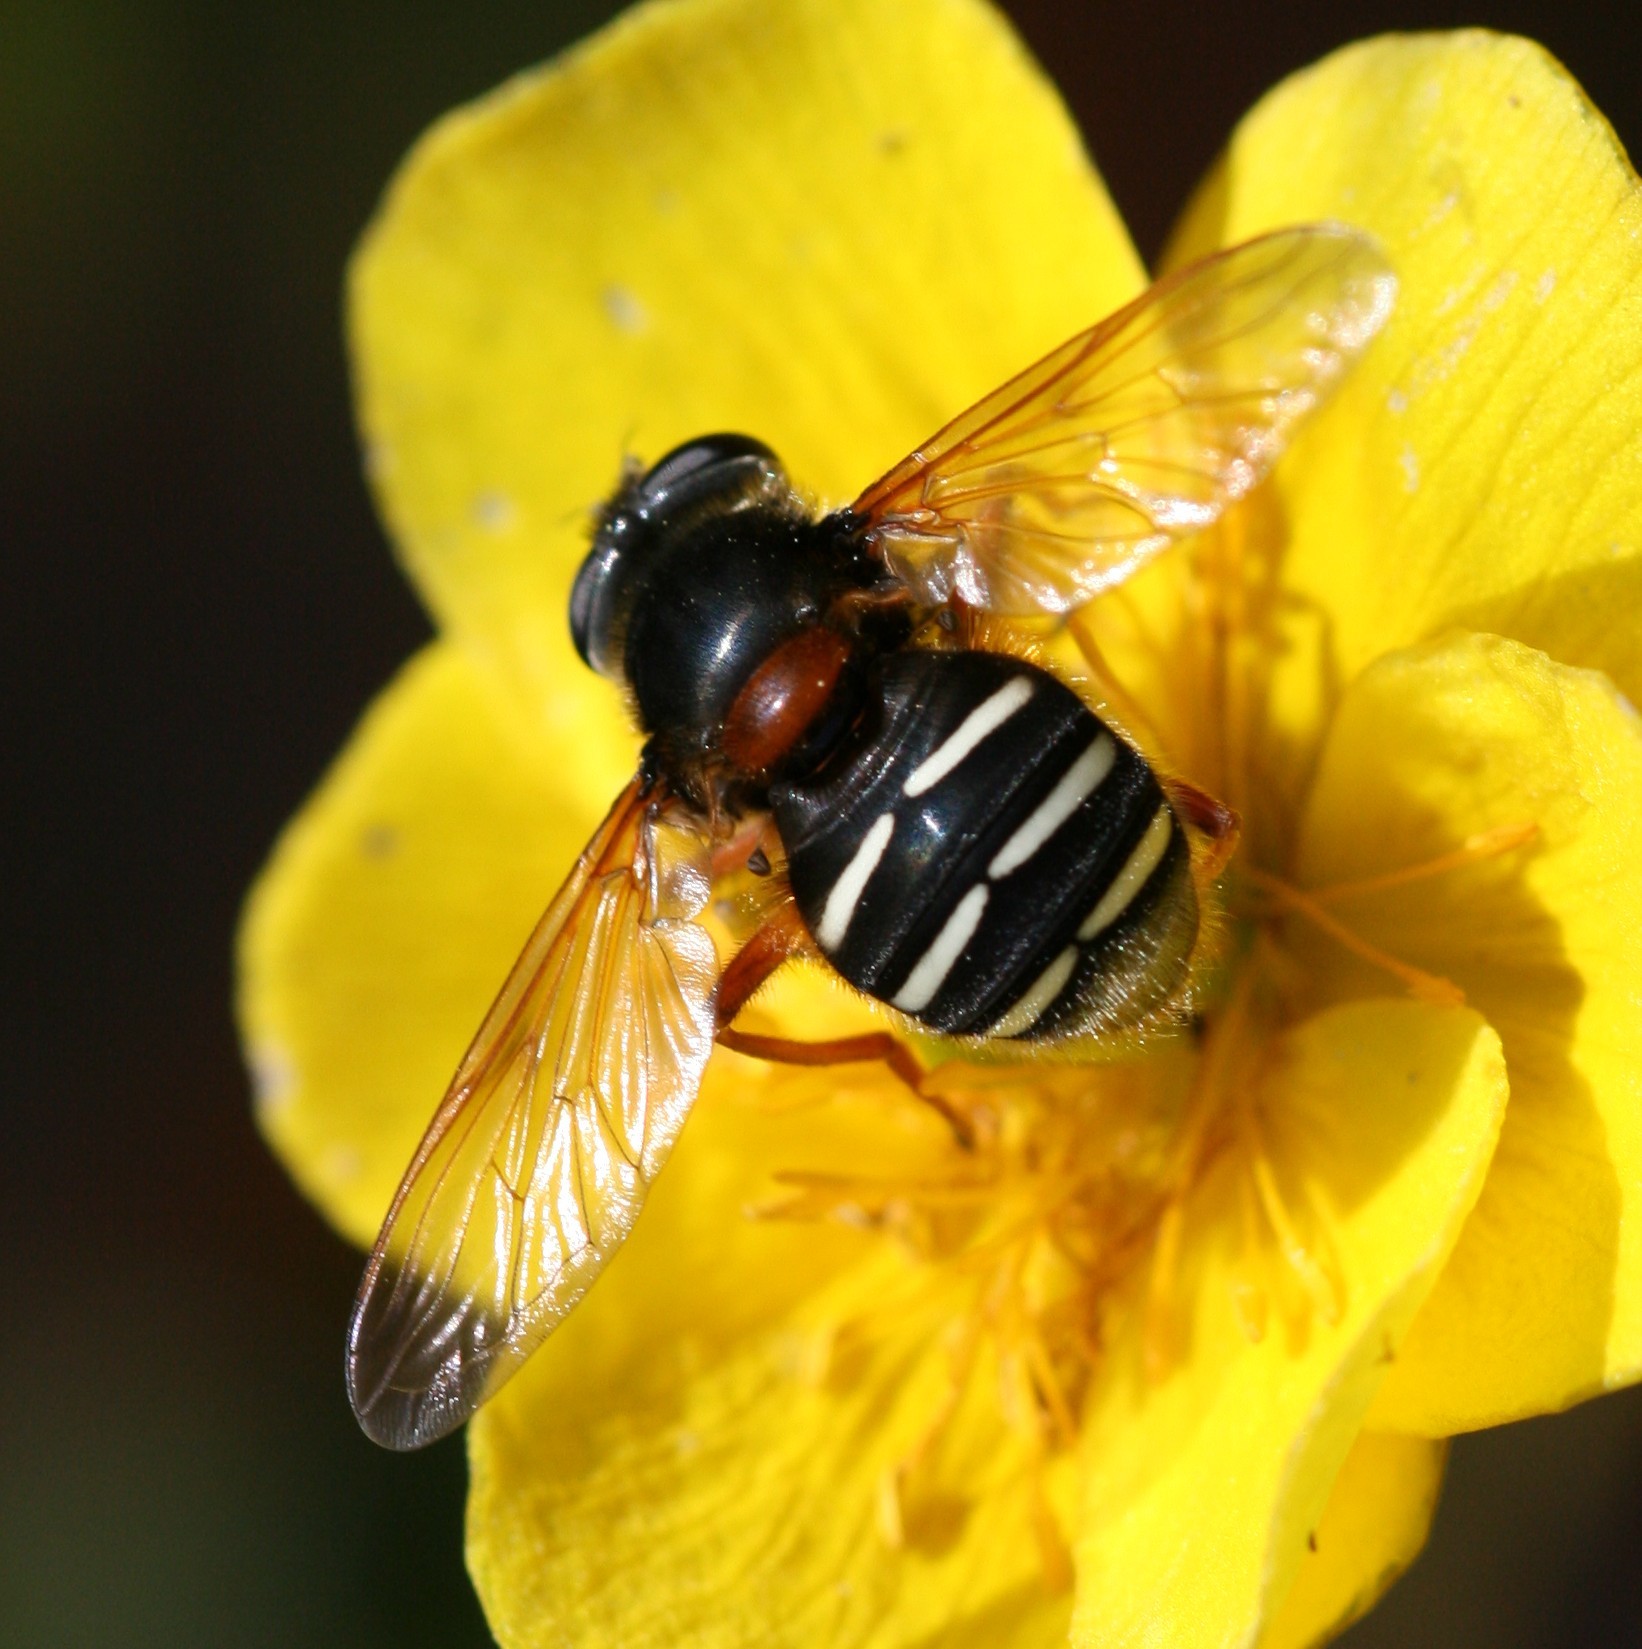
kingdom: Animalia
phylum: Arthropoda
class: Insecta
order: Diptera
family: Syrphidae
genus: Sericomyia
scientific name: Sericomyia lappona
